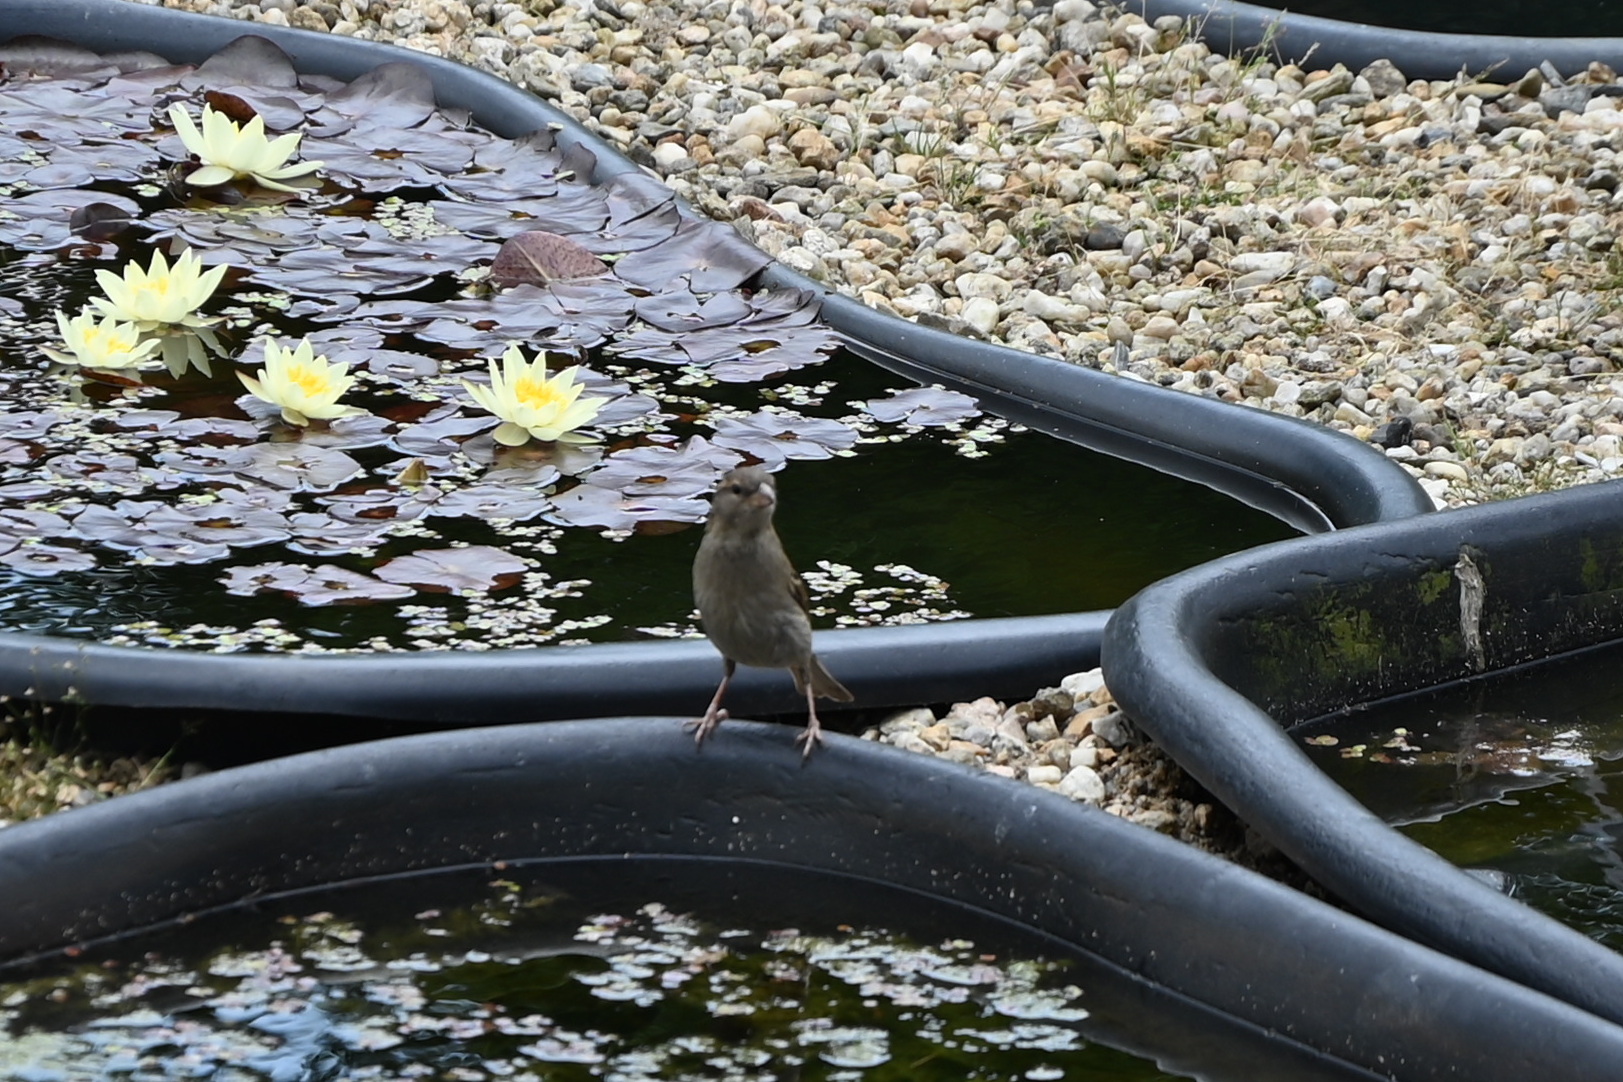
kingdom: Animalia
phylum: Chordata
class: Aves
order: Passeriformes
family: Passeridae
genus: Passer
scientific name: Passer domesticus
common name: House sparrow
